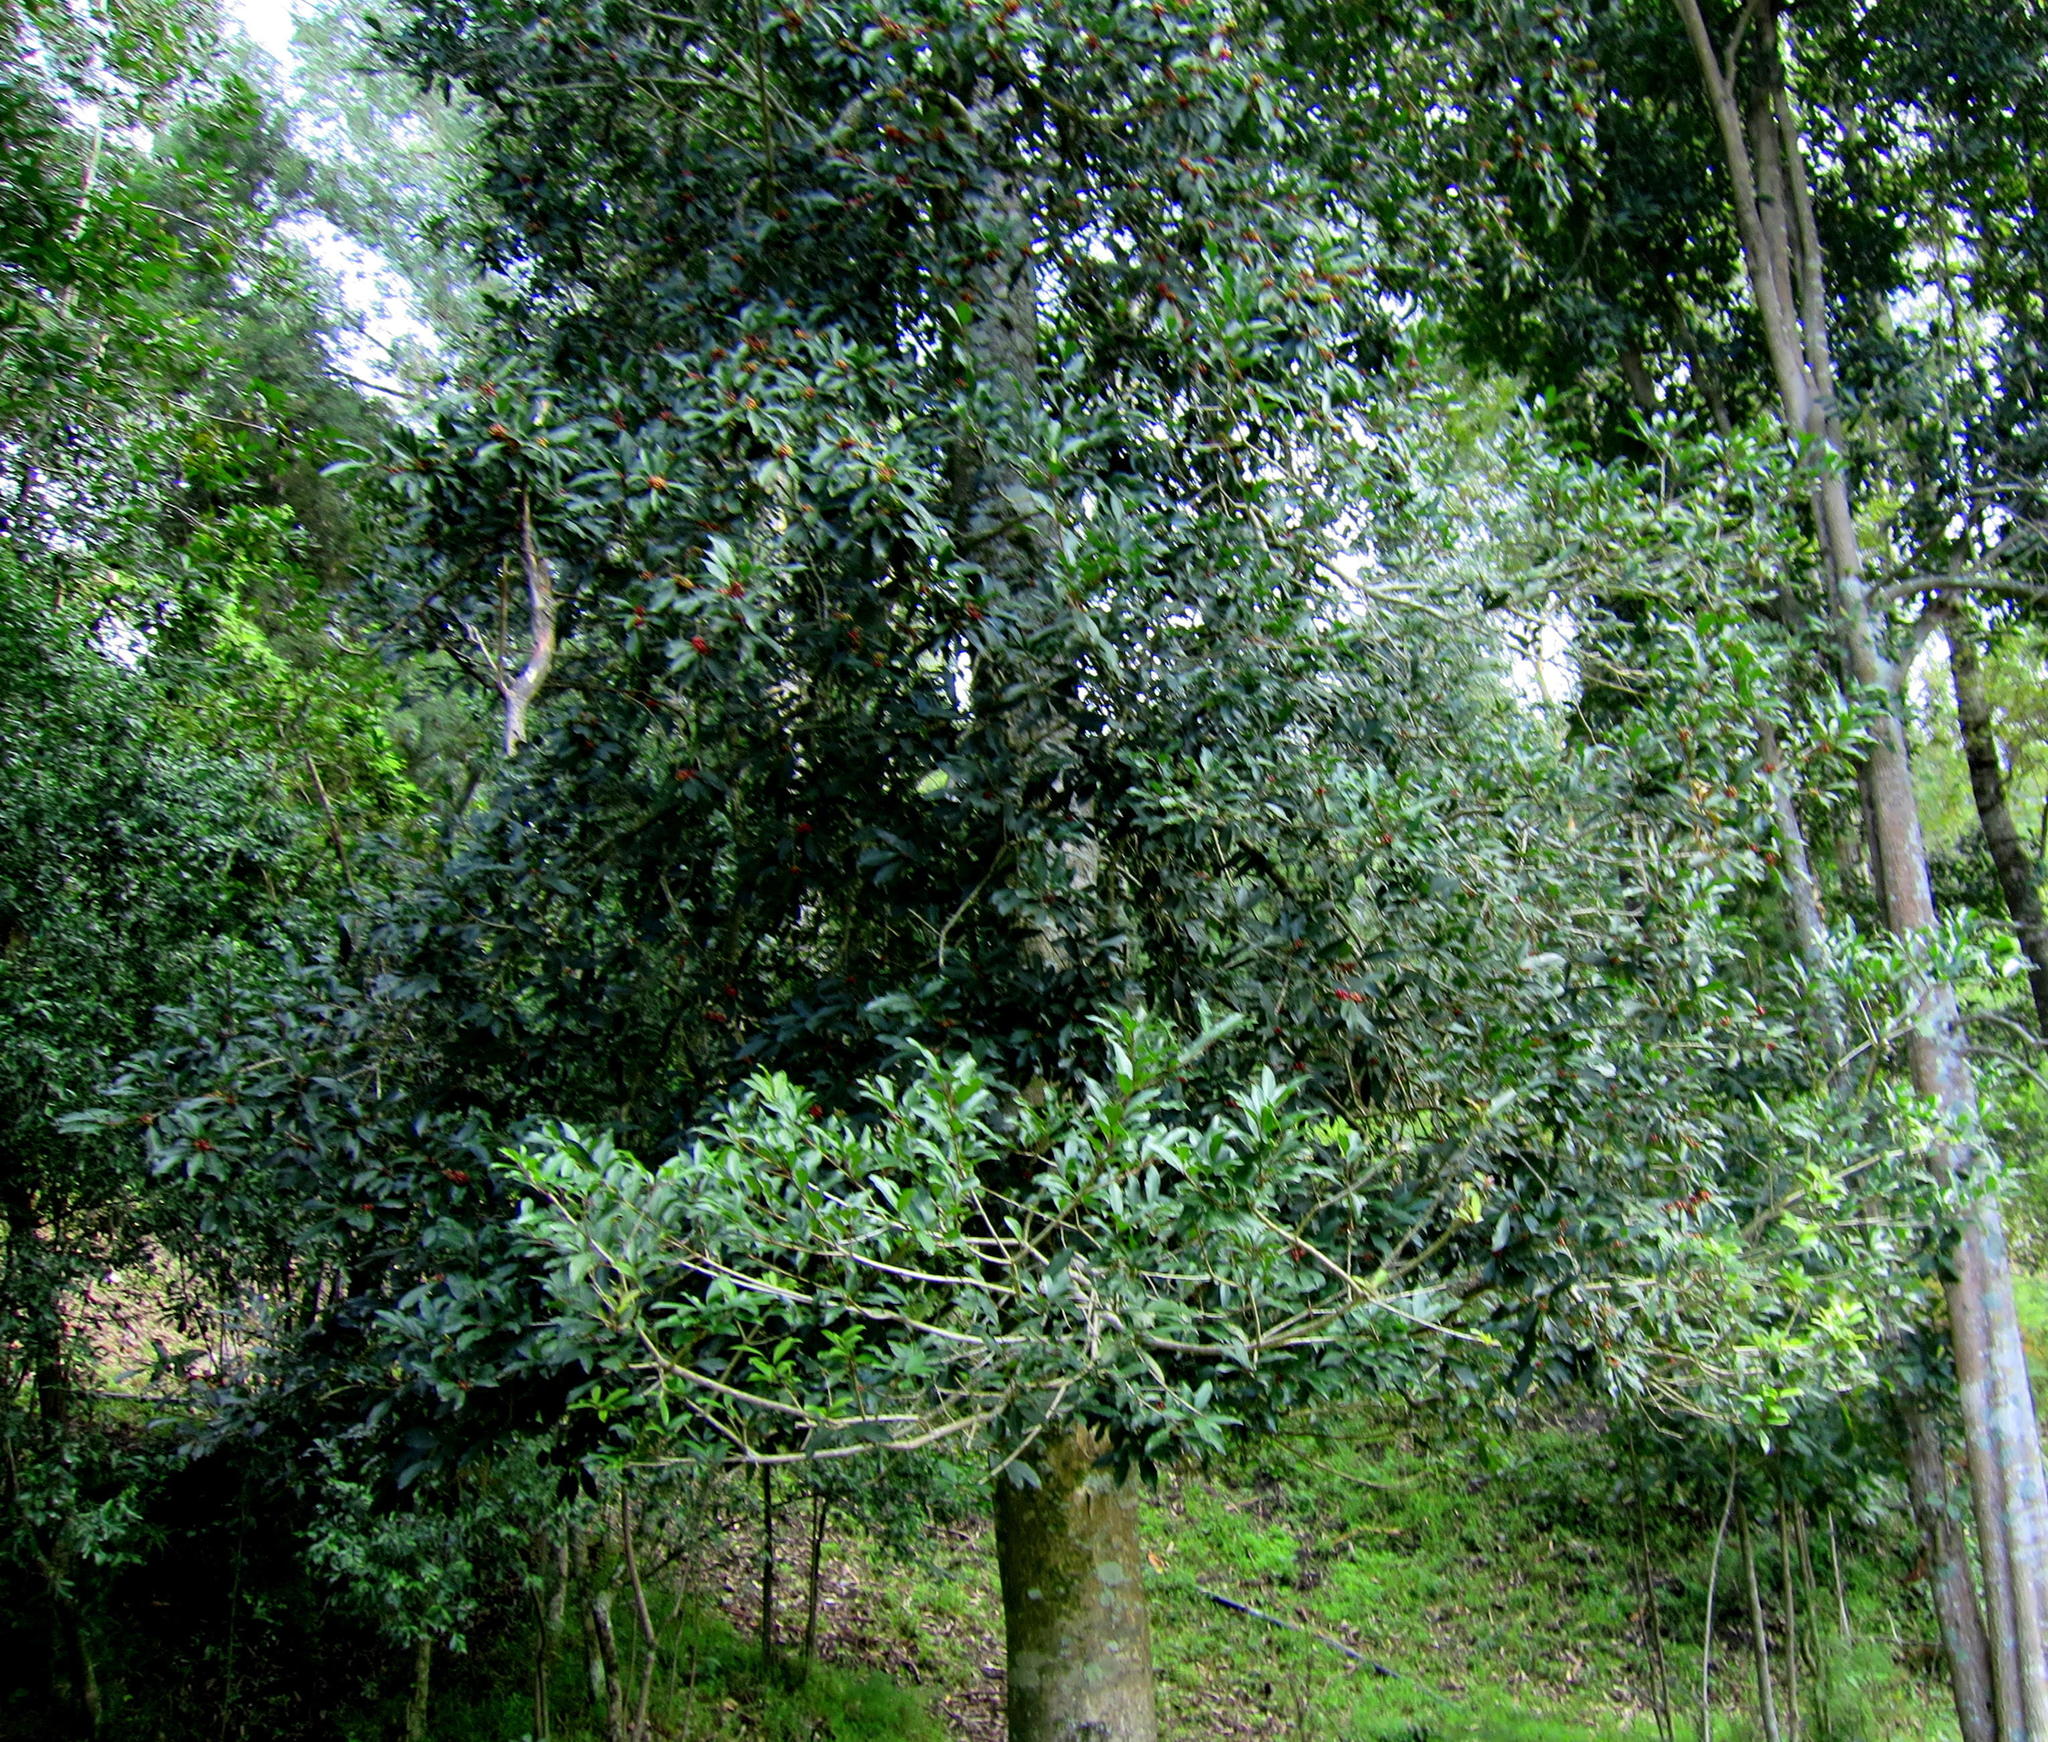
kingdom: Plantae
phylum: Tracheophyta
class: Magnoliopsida
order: Aquifoliales
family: Aquifoliaceae
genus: Ilex
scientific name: Ilex mitis
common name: African holly
